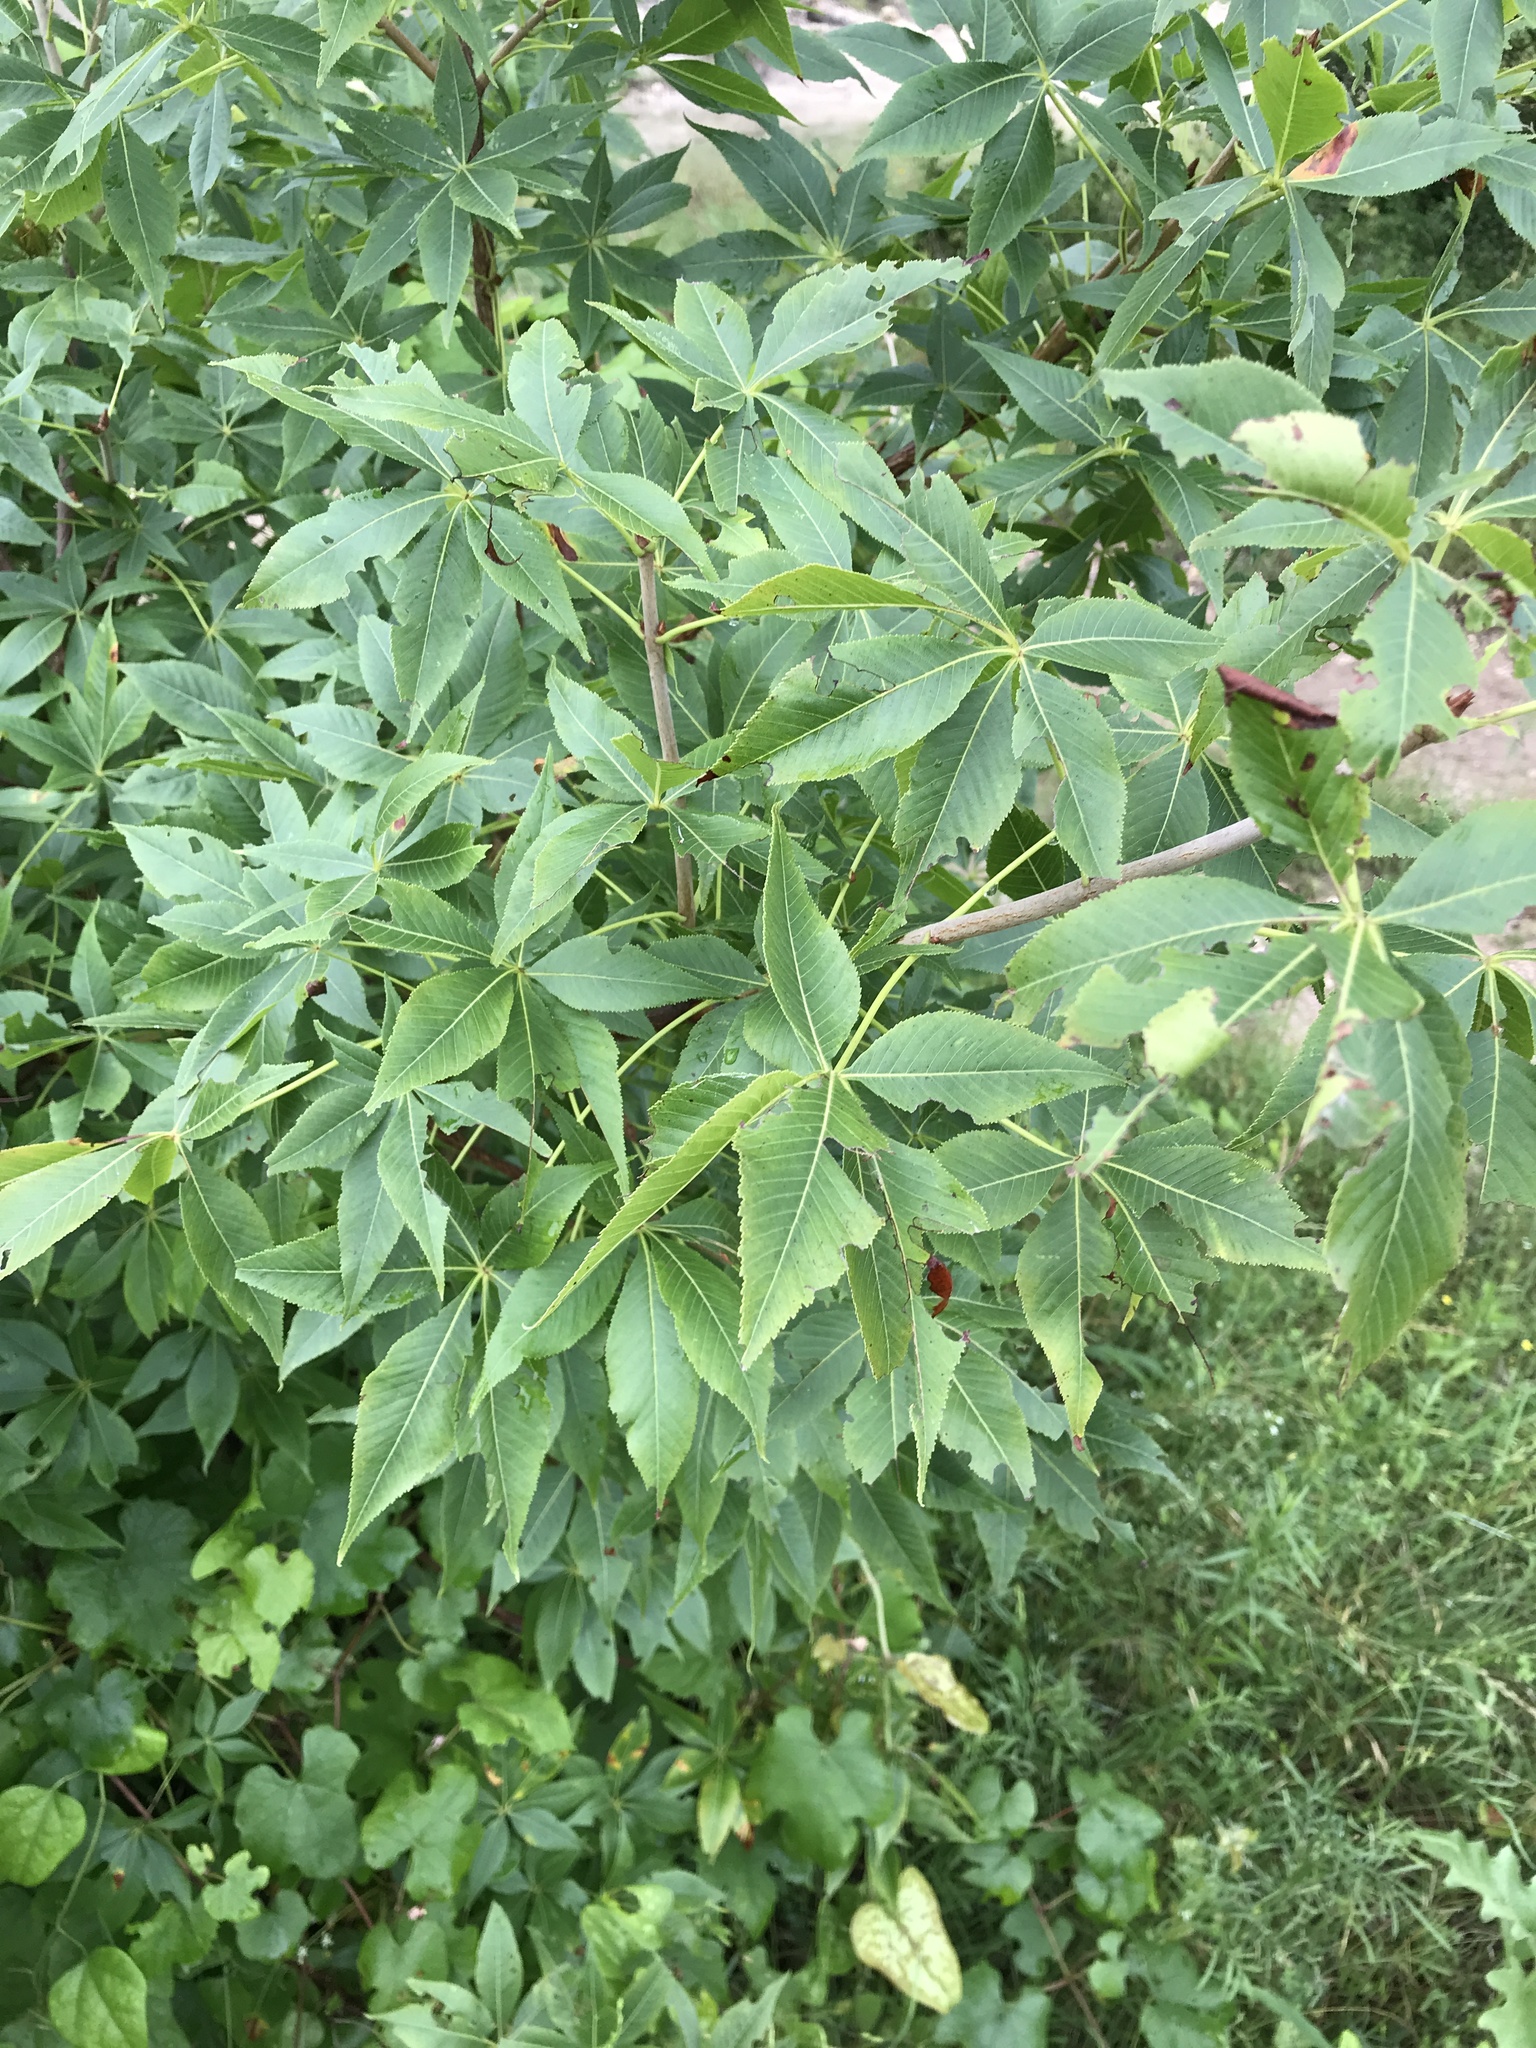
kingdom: Plantae
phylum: Tracheophyta
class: Magnoliopsida
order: Sapindales
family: Sapindaceae
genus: Aesculus
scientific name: Aesculus glabra
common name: Ohio buckeye
